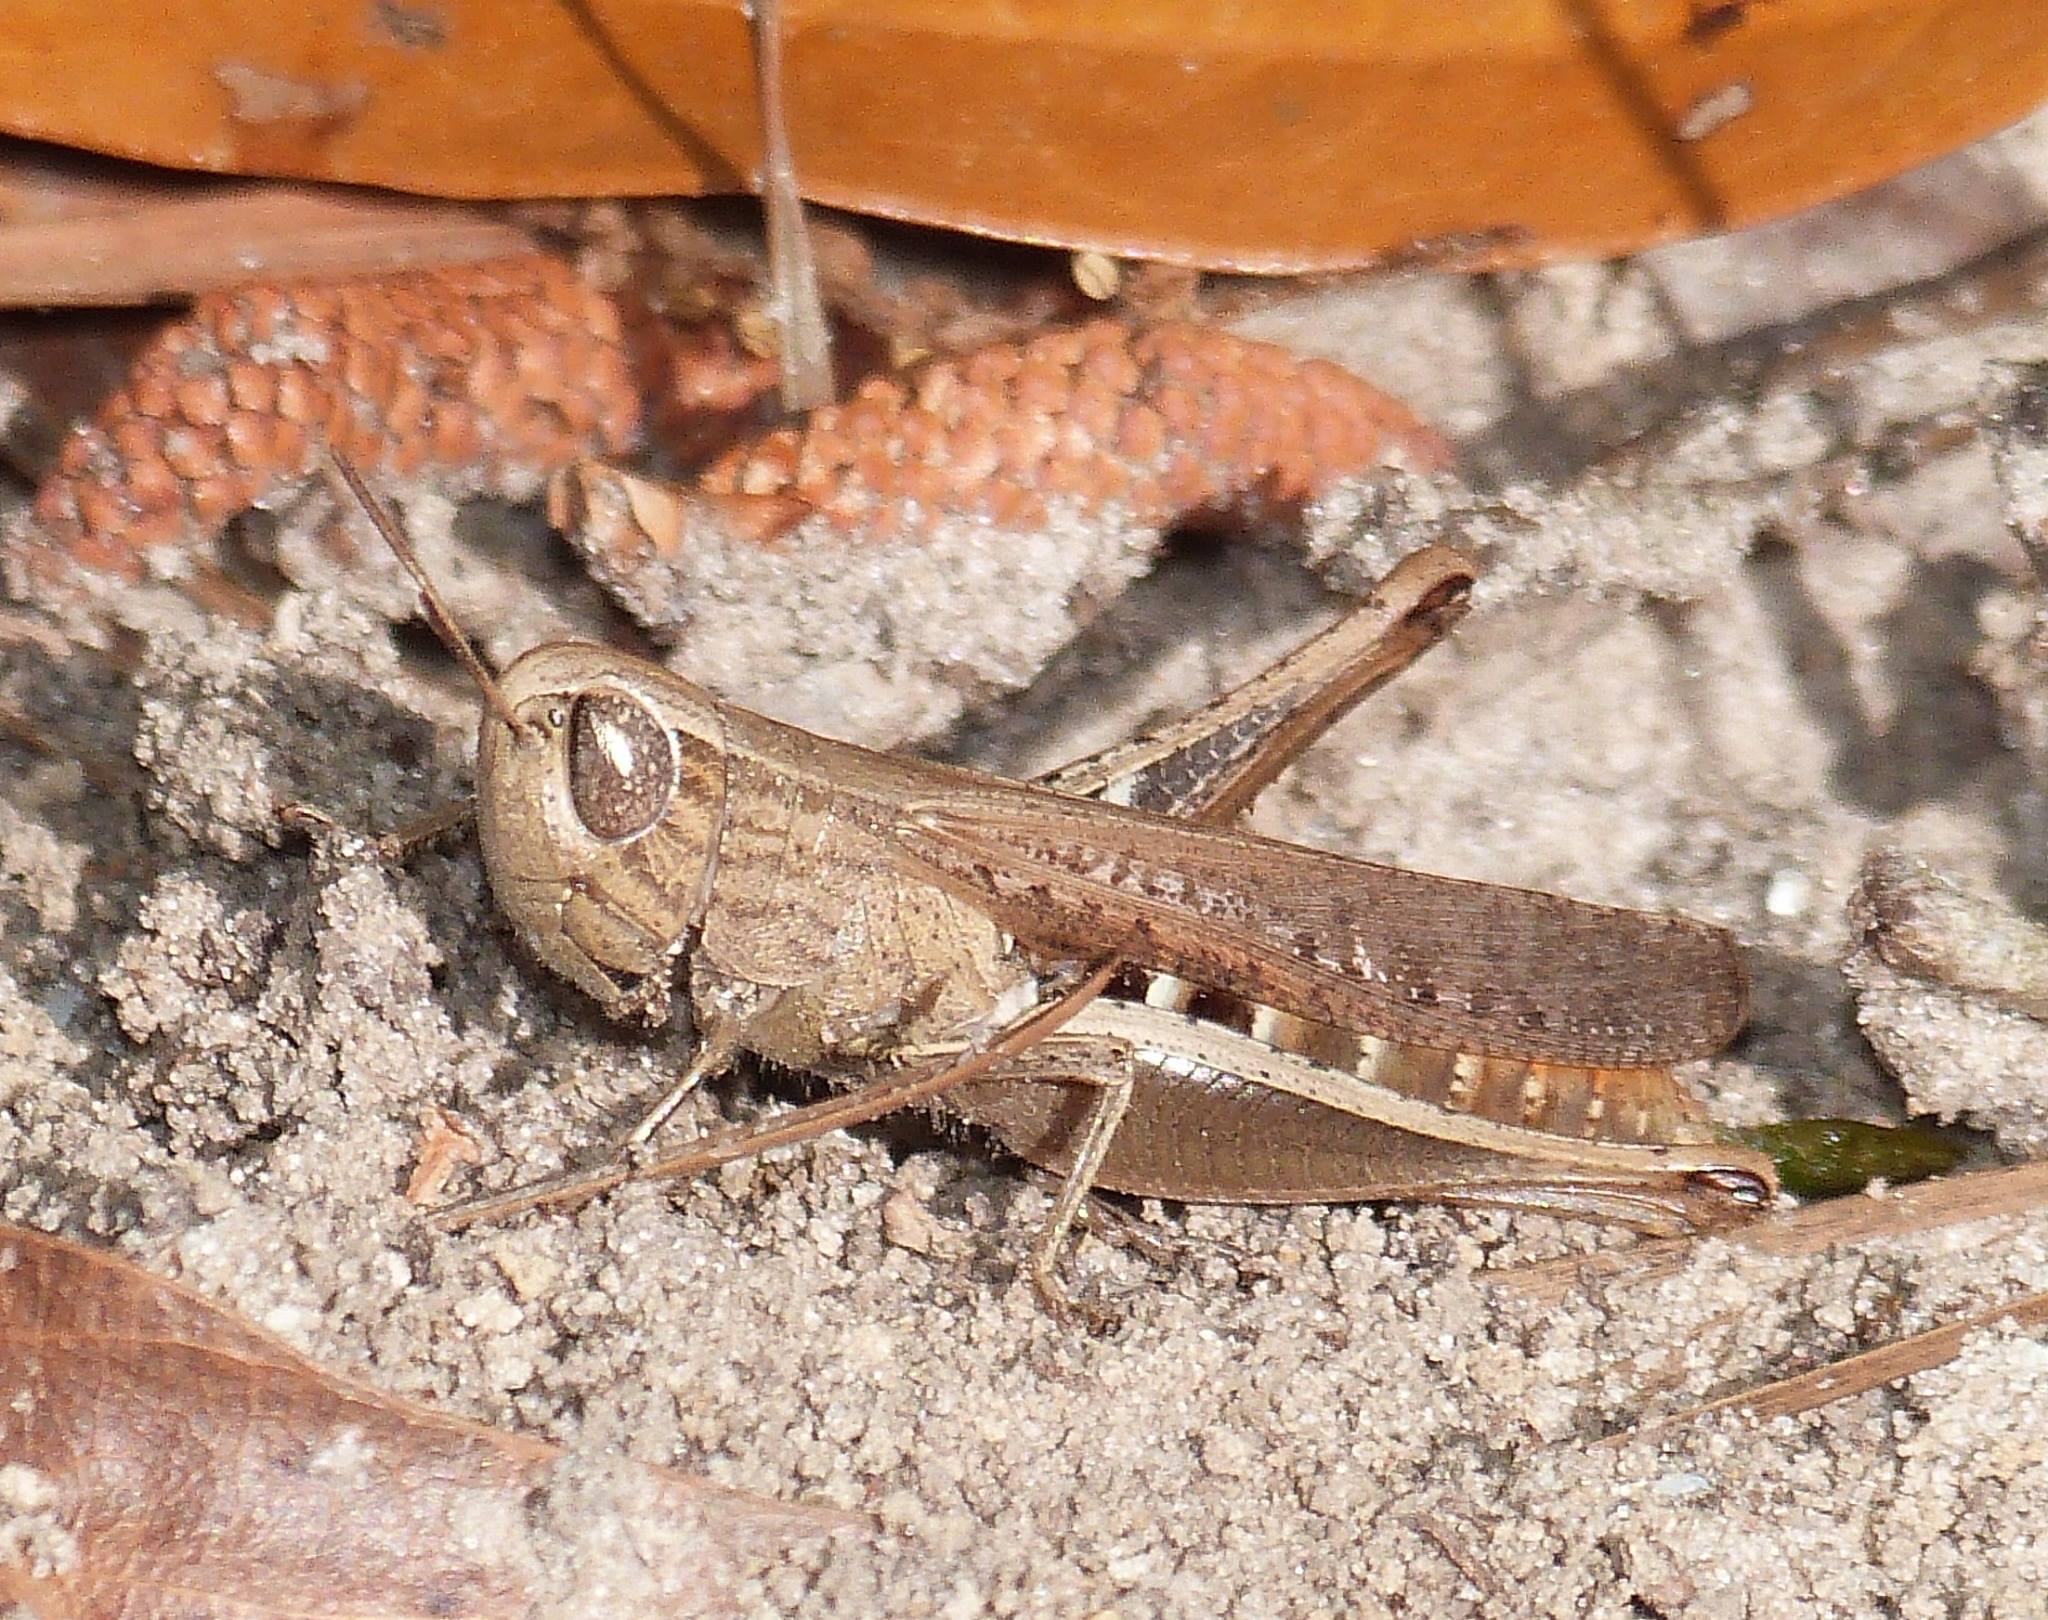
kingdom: Animalia
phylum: Arthropoda
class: Insecta
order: Orthoptera
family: Acrididae
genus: Amblytropidia
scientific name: Amblytropidia mysteca
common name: Brown winter grasshopper
